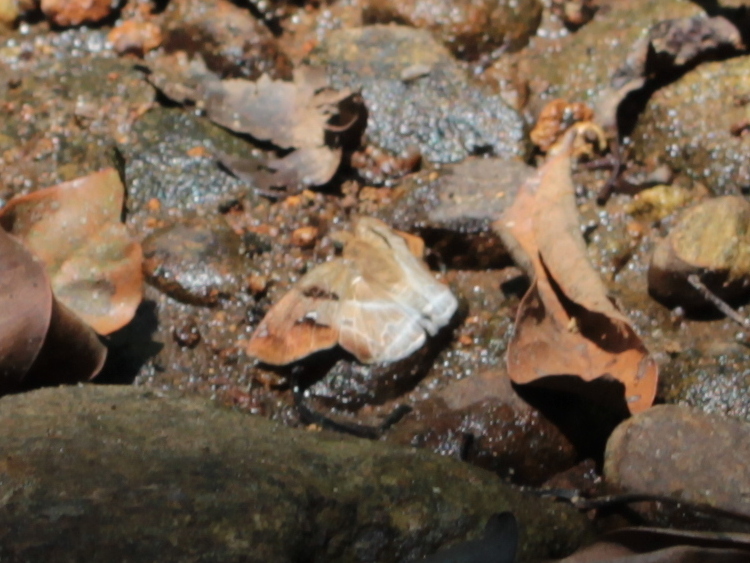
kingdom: Animalia
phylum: Arthropoda
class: Insecta
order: Lepidoptera
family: Hesperiidae
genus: Odontoptilum
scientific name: Odontoptilum angulata
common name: Chestnut banded angle
